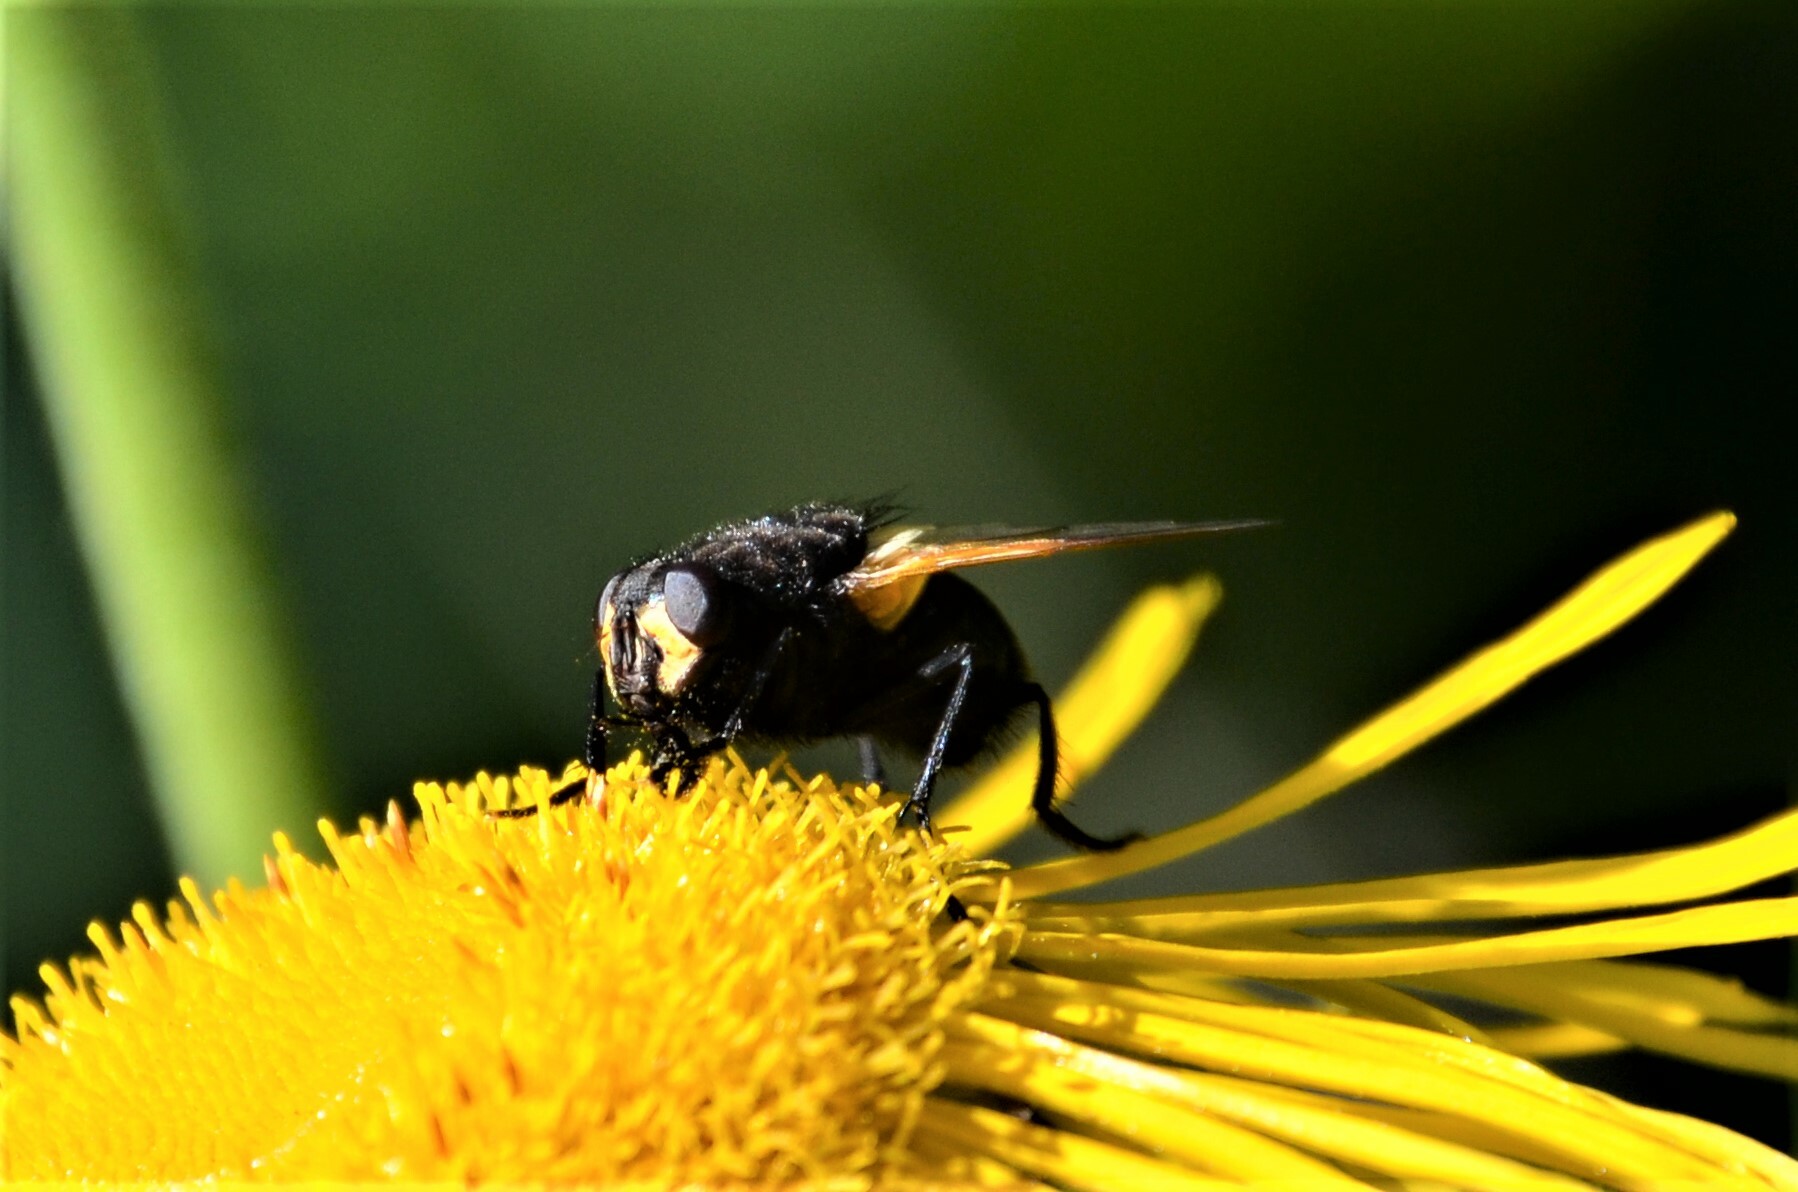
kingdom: Animalia
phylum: Arthropoda
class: Insecta
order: Diptera
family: Muscidae
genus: Mesembrina
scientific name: Mesembrina meridiana
